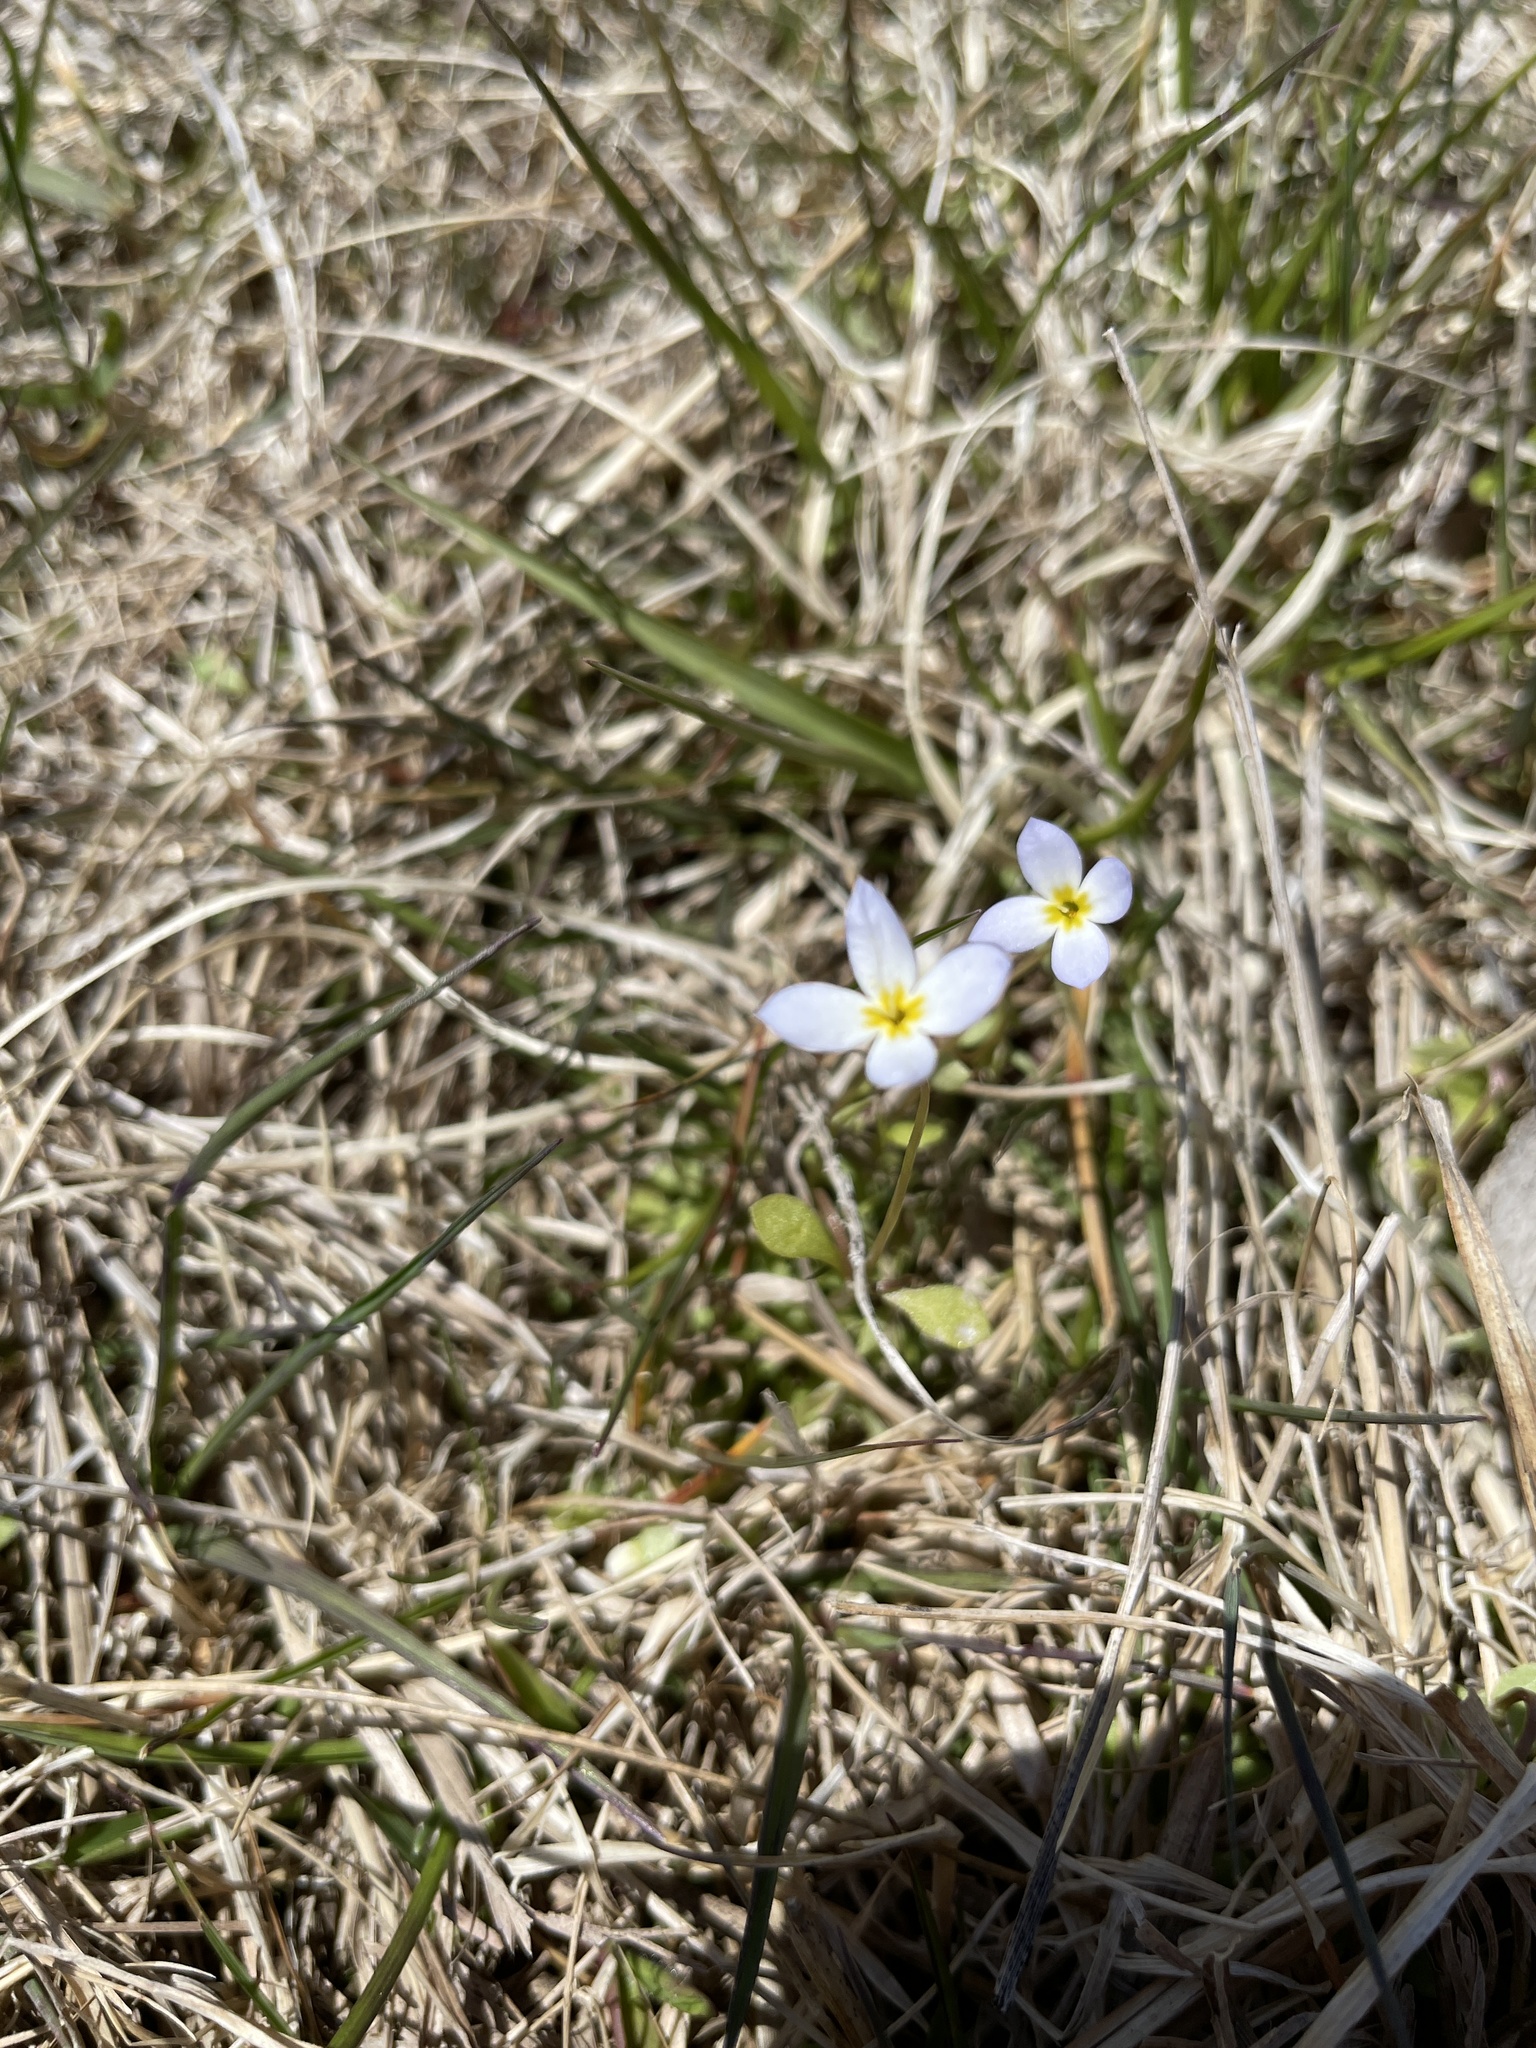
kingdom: Plantae
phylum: Tracheophyta
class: Magnoliopsida
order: Gentianales
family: Rubiaceae
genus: Houstonia
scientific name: Houstonia caerulea
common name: Bluets
